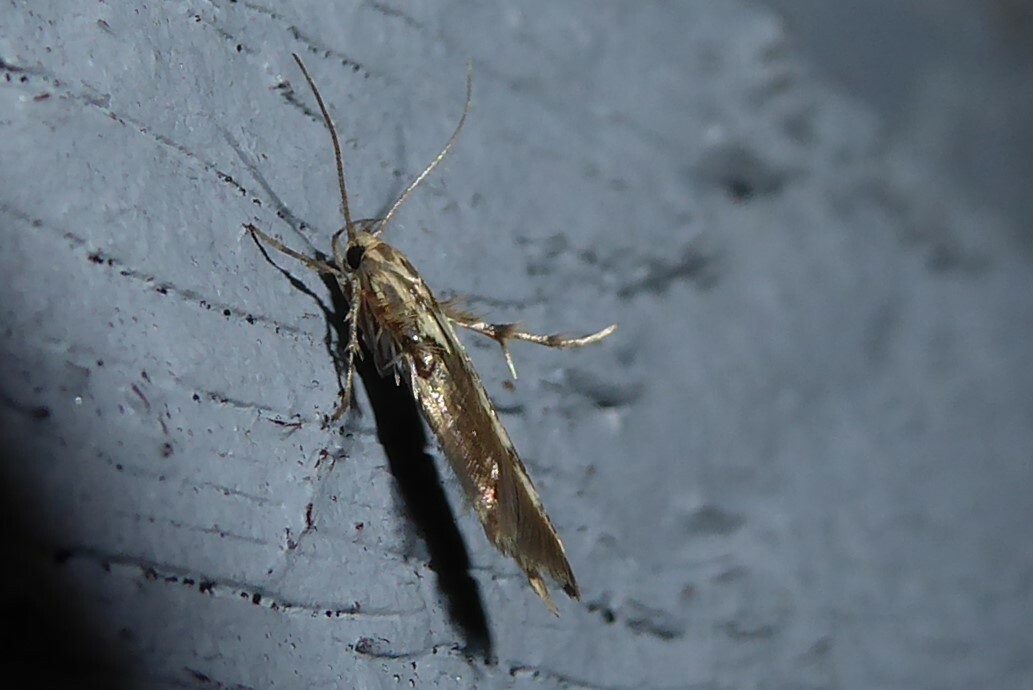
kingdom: Animalia
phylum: Arthropoda
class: Insecta
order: Lepidoptera
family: Stathmopodidae
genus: Stathmopoda
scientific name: Stathmopoda plumbiflua
